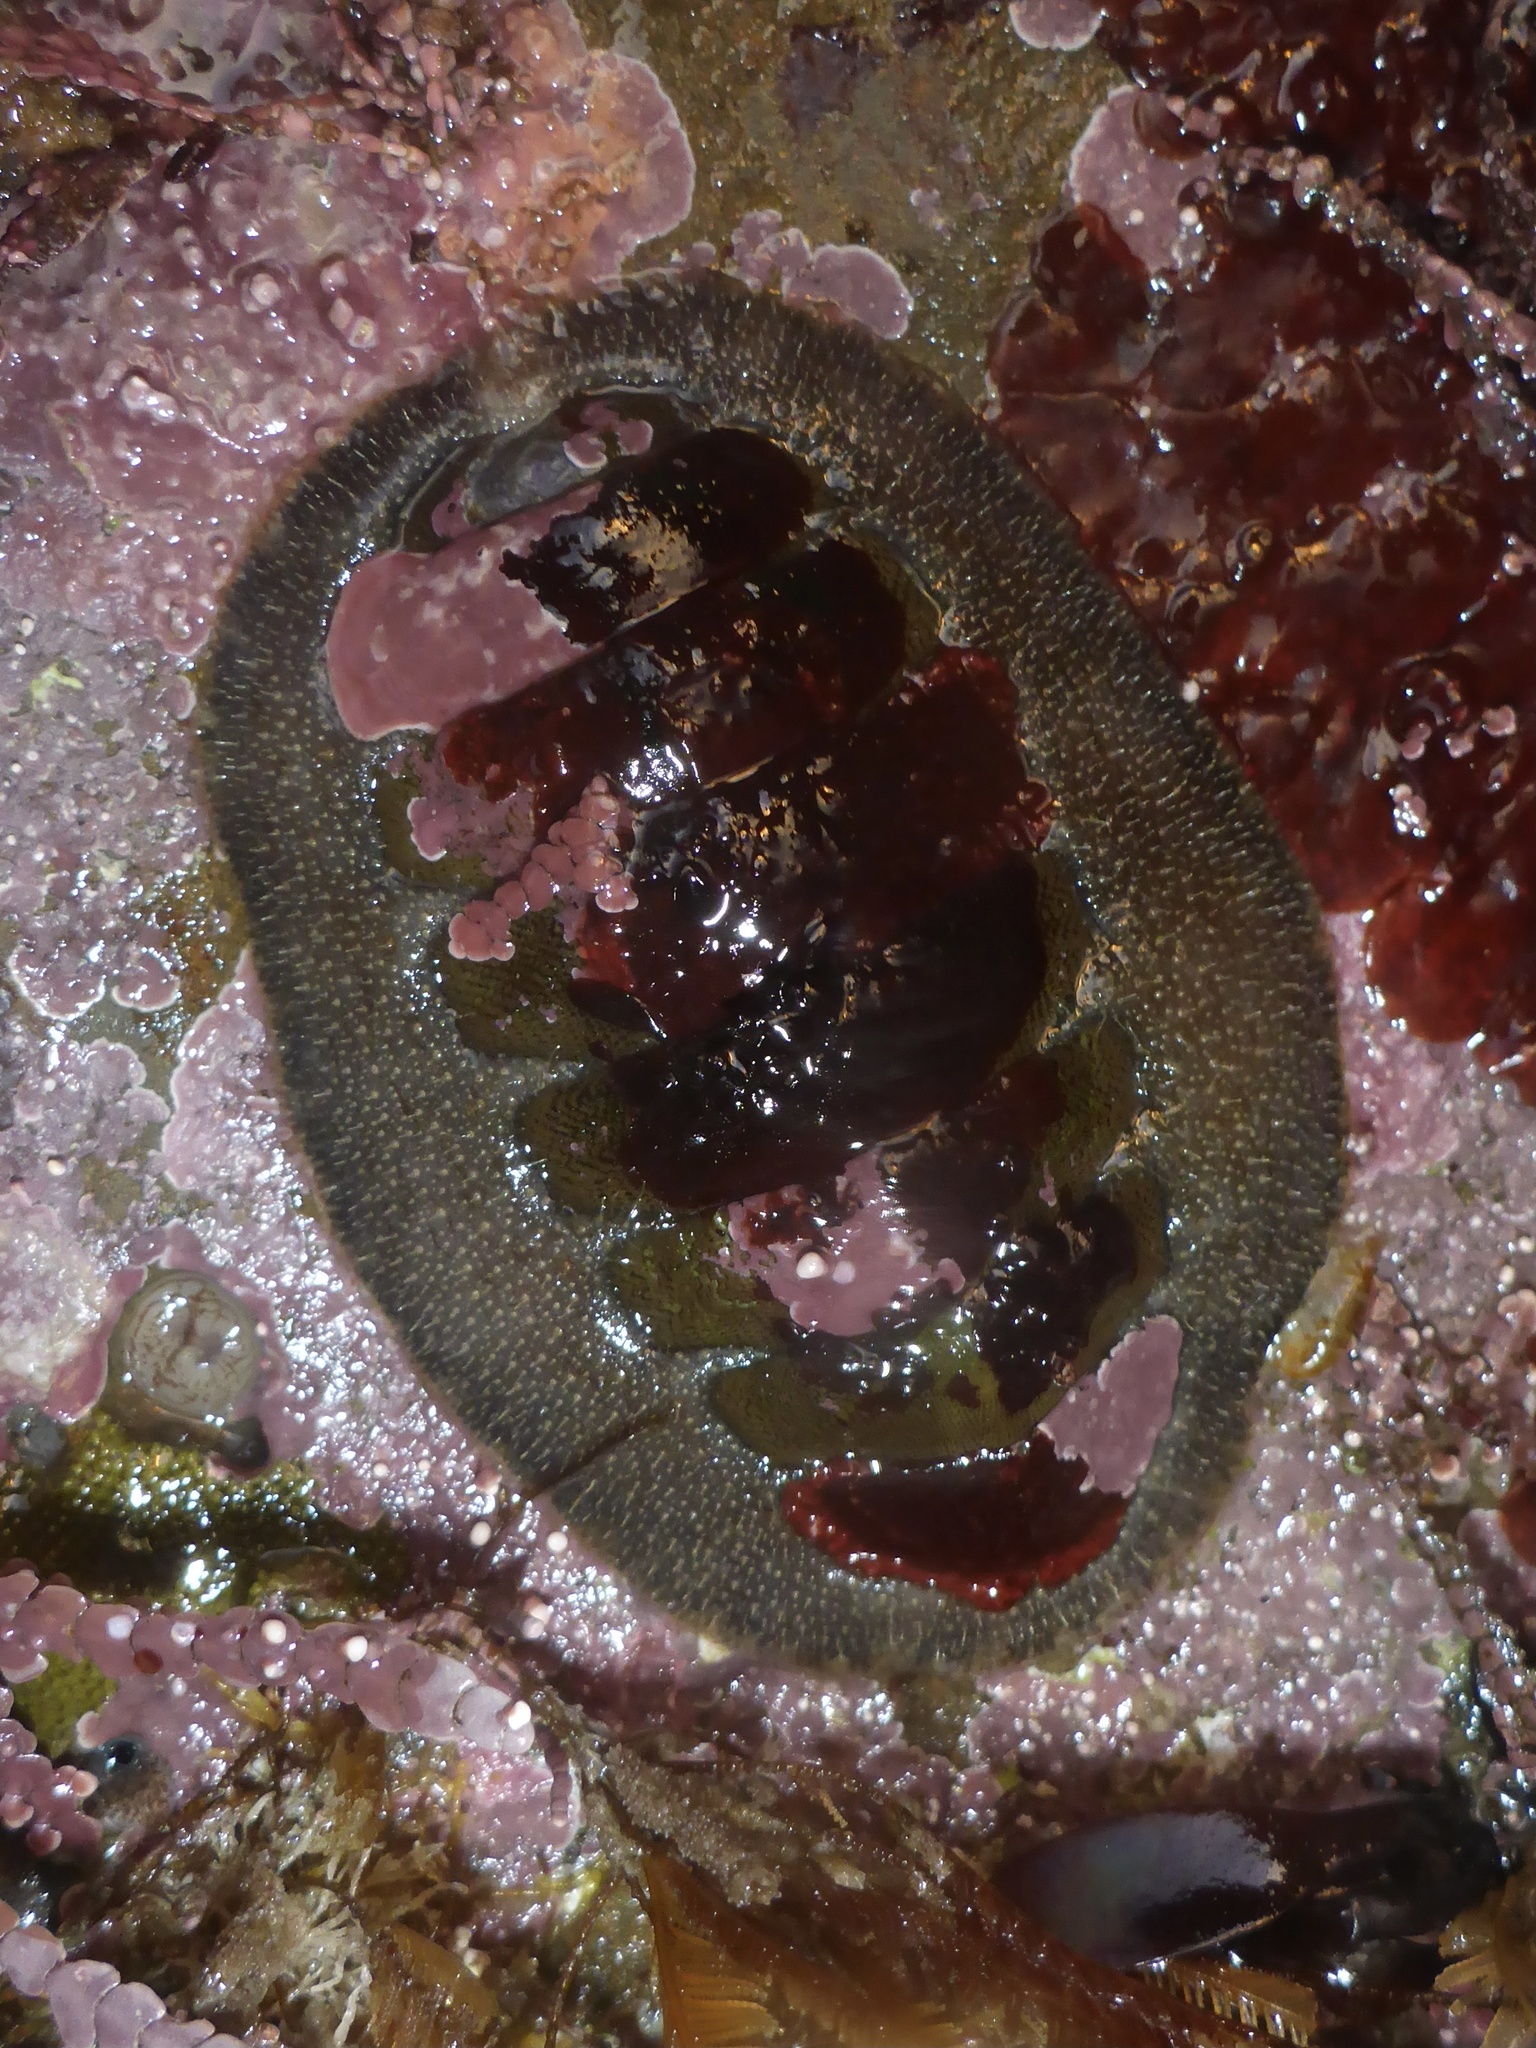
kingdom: Animalia
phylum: Mollusca
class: Polyplacophora
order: Chitonida
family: Mopaliidae
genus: Mopalia
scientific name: Mopalia hindsii
